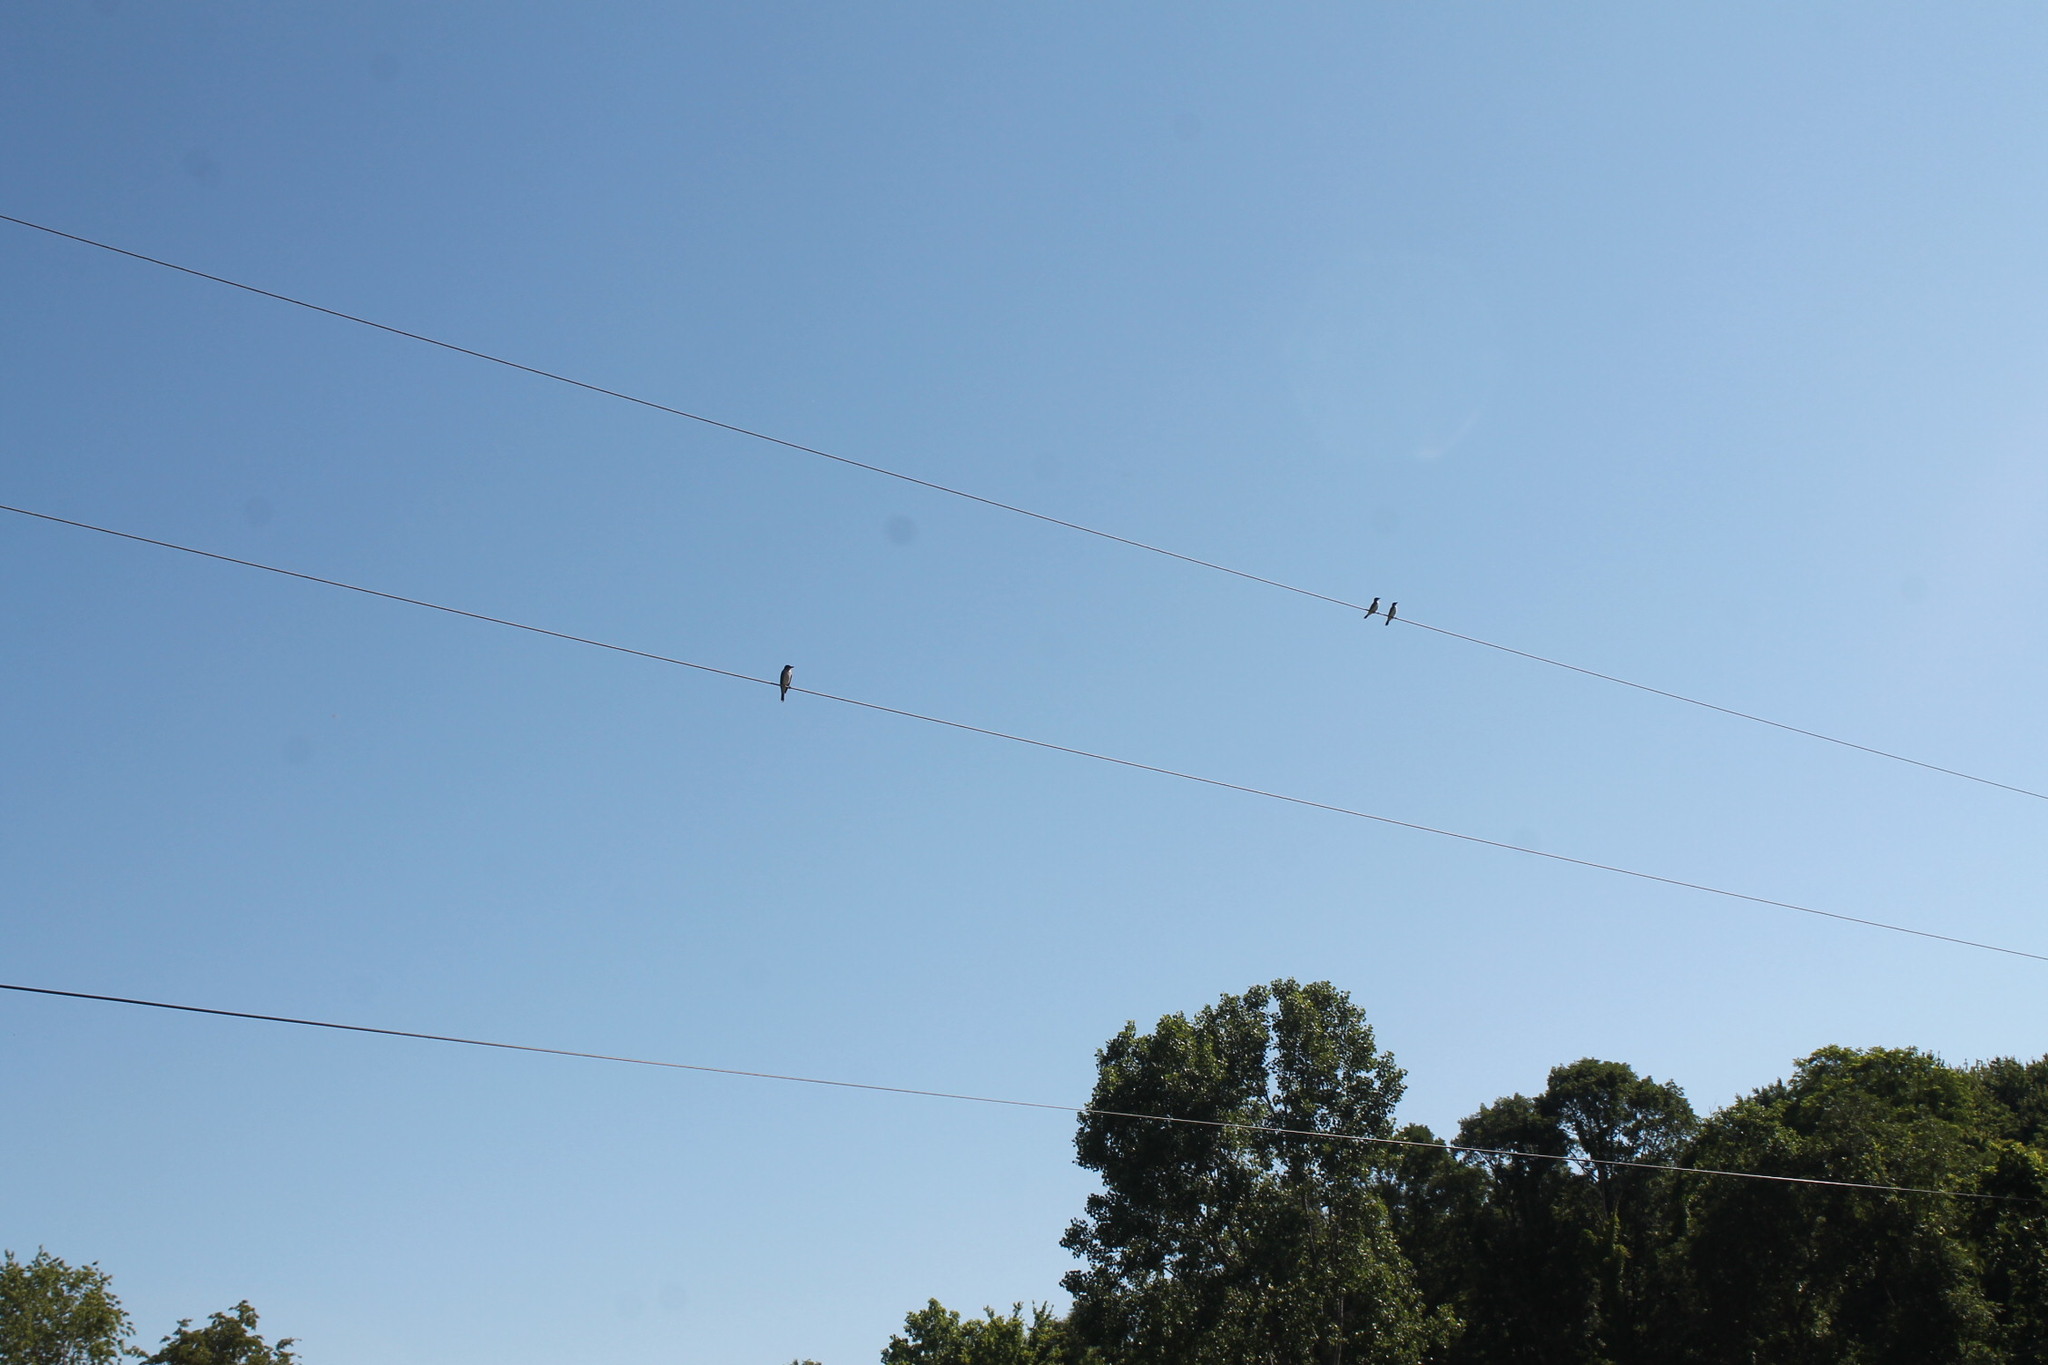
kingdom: Animalia
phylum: Chordata
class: Aves
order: Passeriformes
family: Tyrannidae
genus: Tyrannus
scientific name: Tyrannus tyrannus
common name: Eastern kingbird
